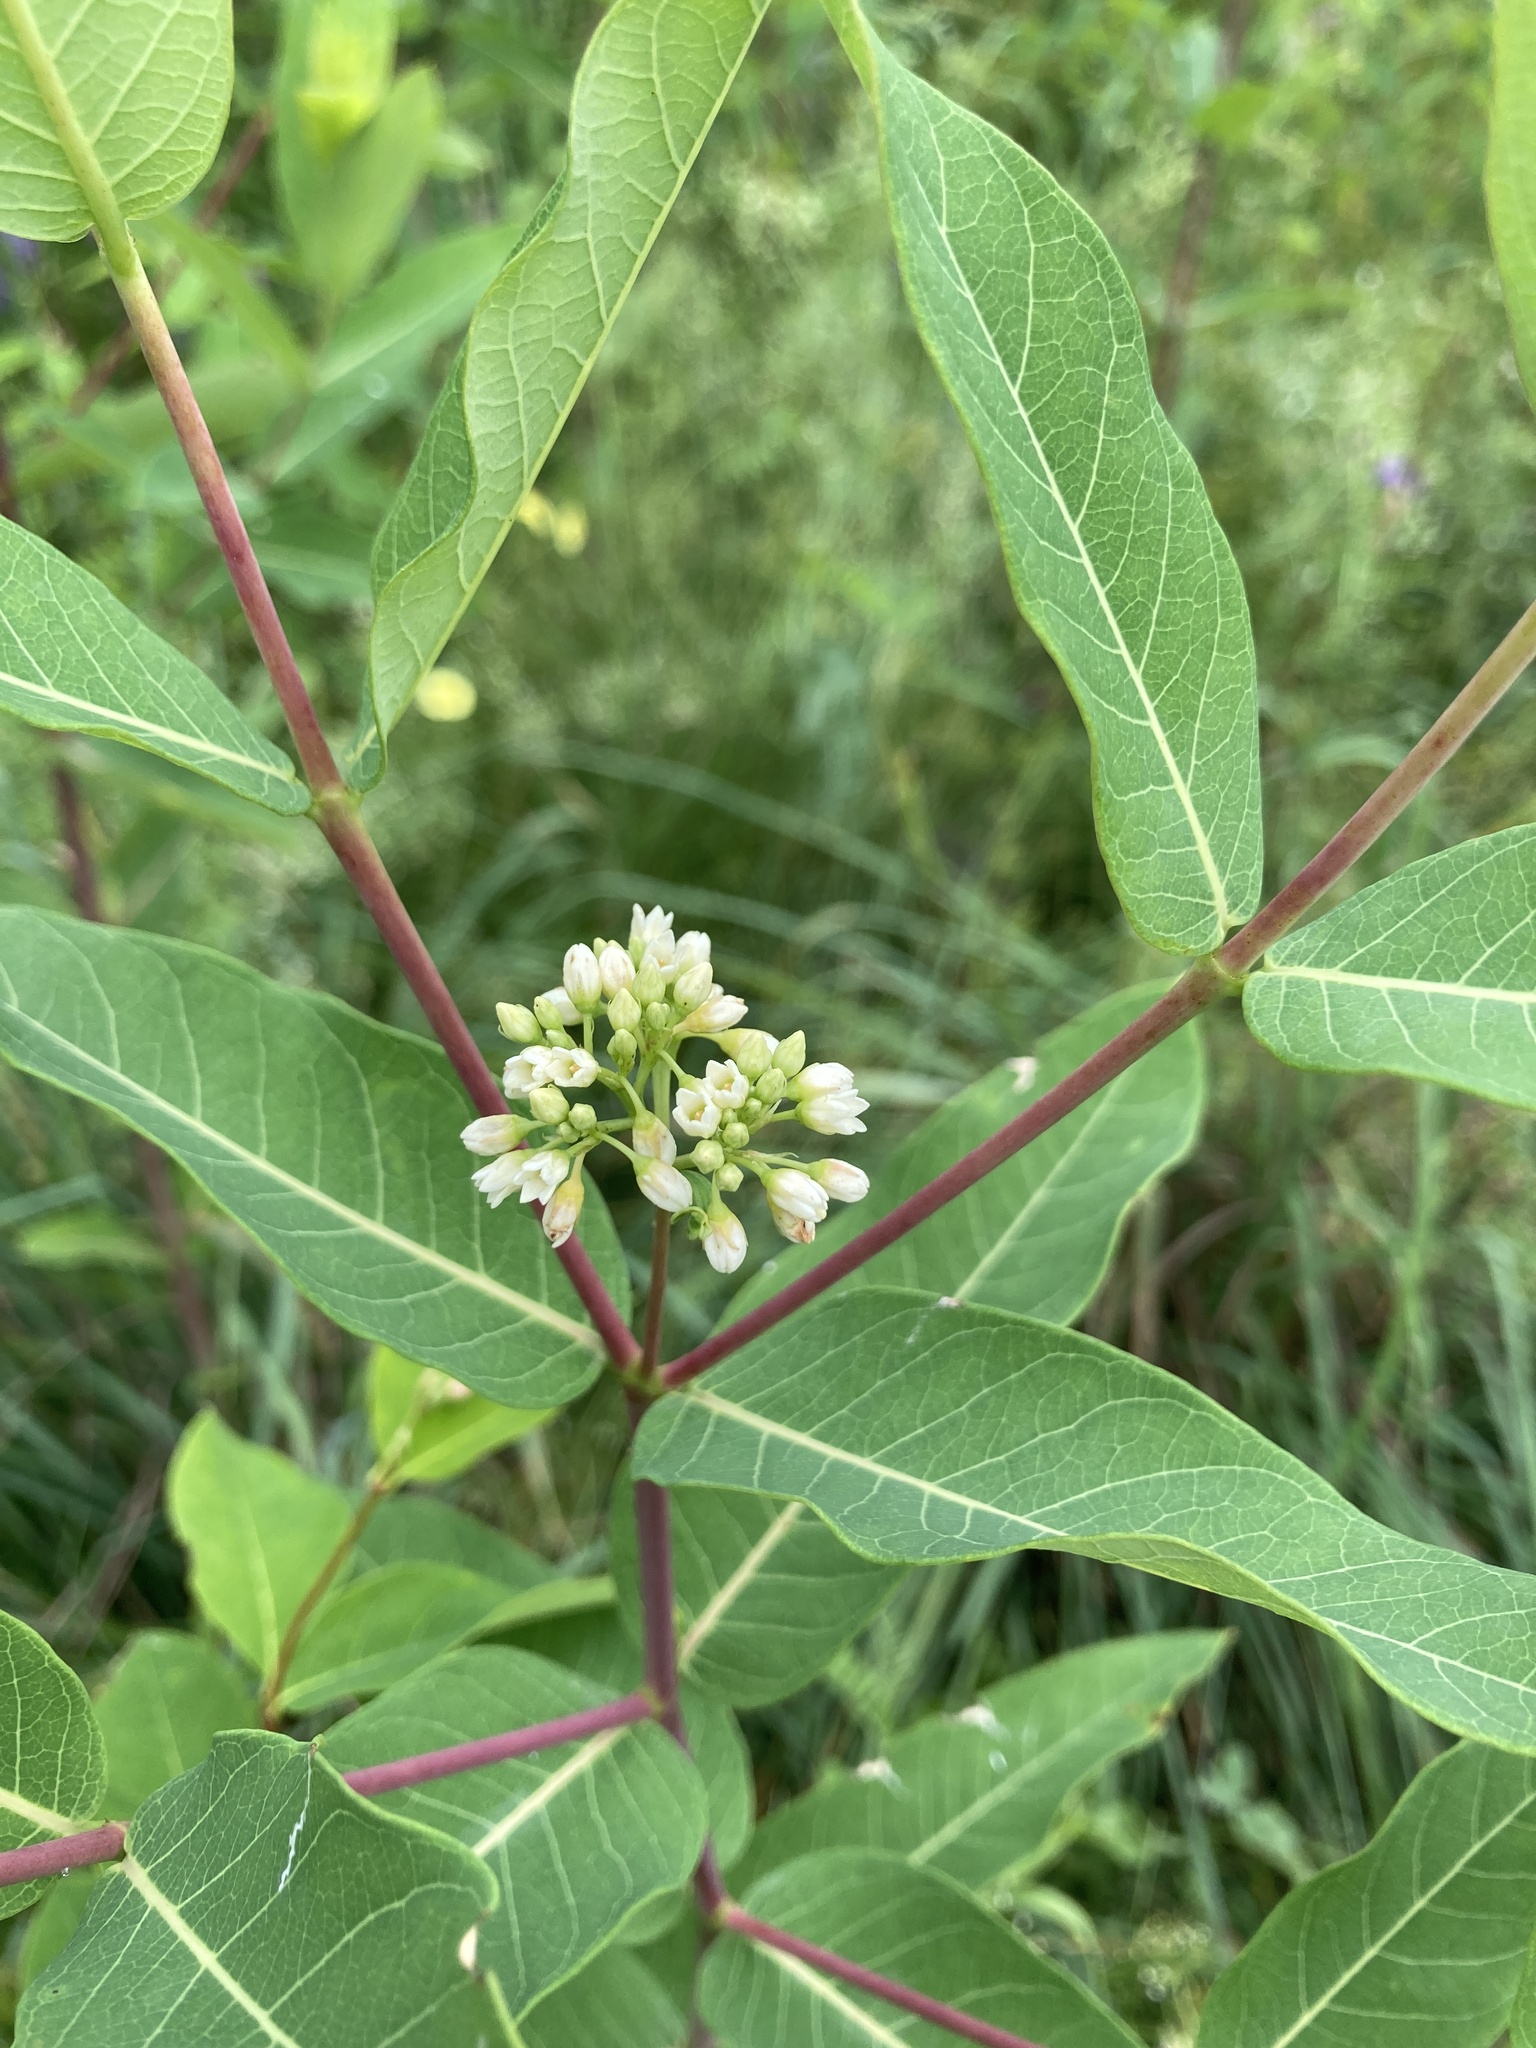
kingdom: Plantae
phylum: Tracheophyta
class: Magnoliopsida
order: Gentianales
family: Apocynaceae
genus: Apocynum
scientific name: Apocynum cannabinum
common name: Hemp dogbane
